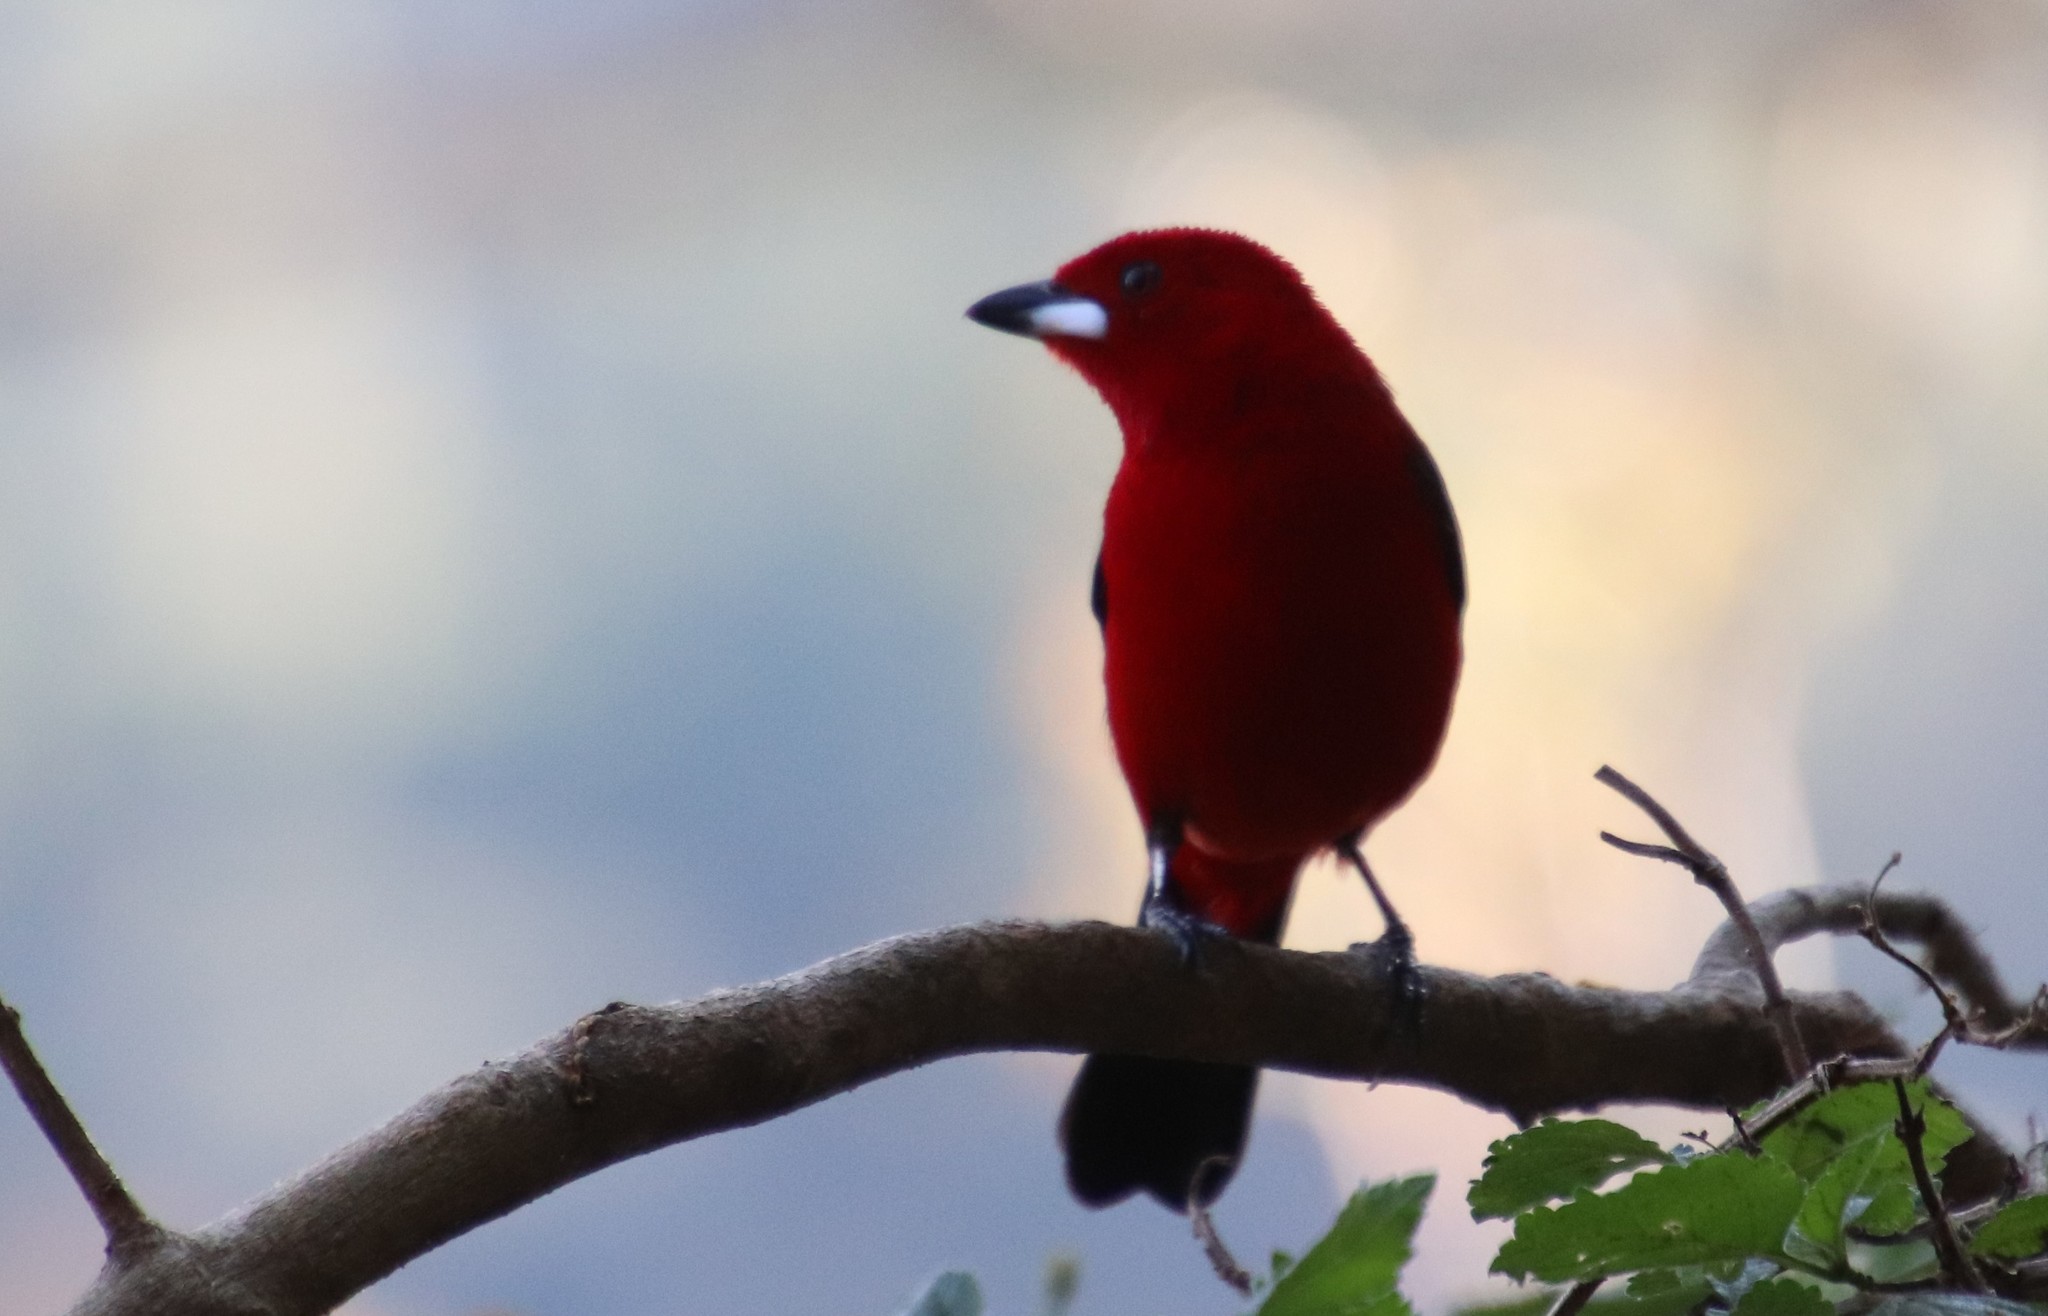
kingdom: Animalia
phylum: Chordata
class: Aves
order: Passeriformes
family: Thraupidae
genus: Ramphocelus
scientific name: Ramphocelus bresilia
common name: Brazilian tanager
